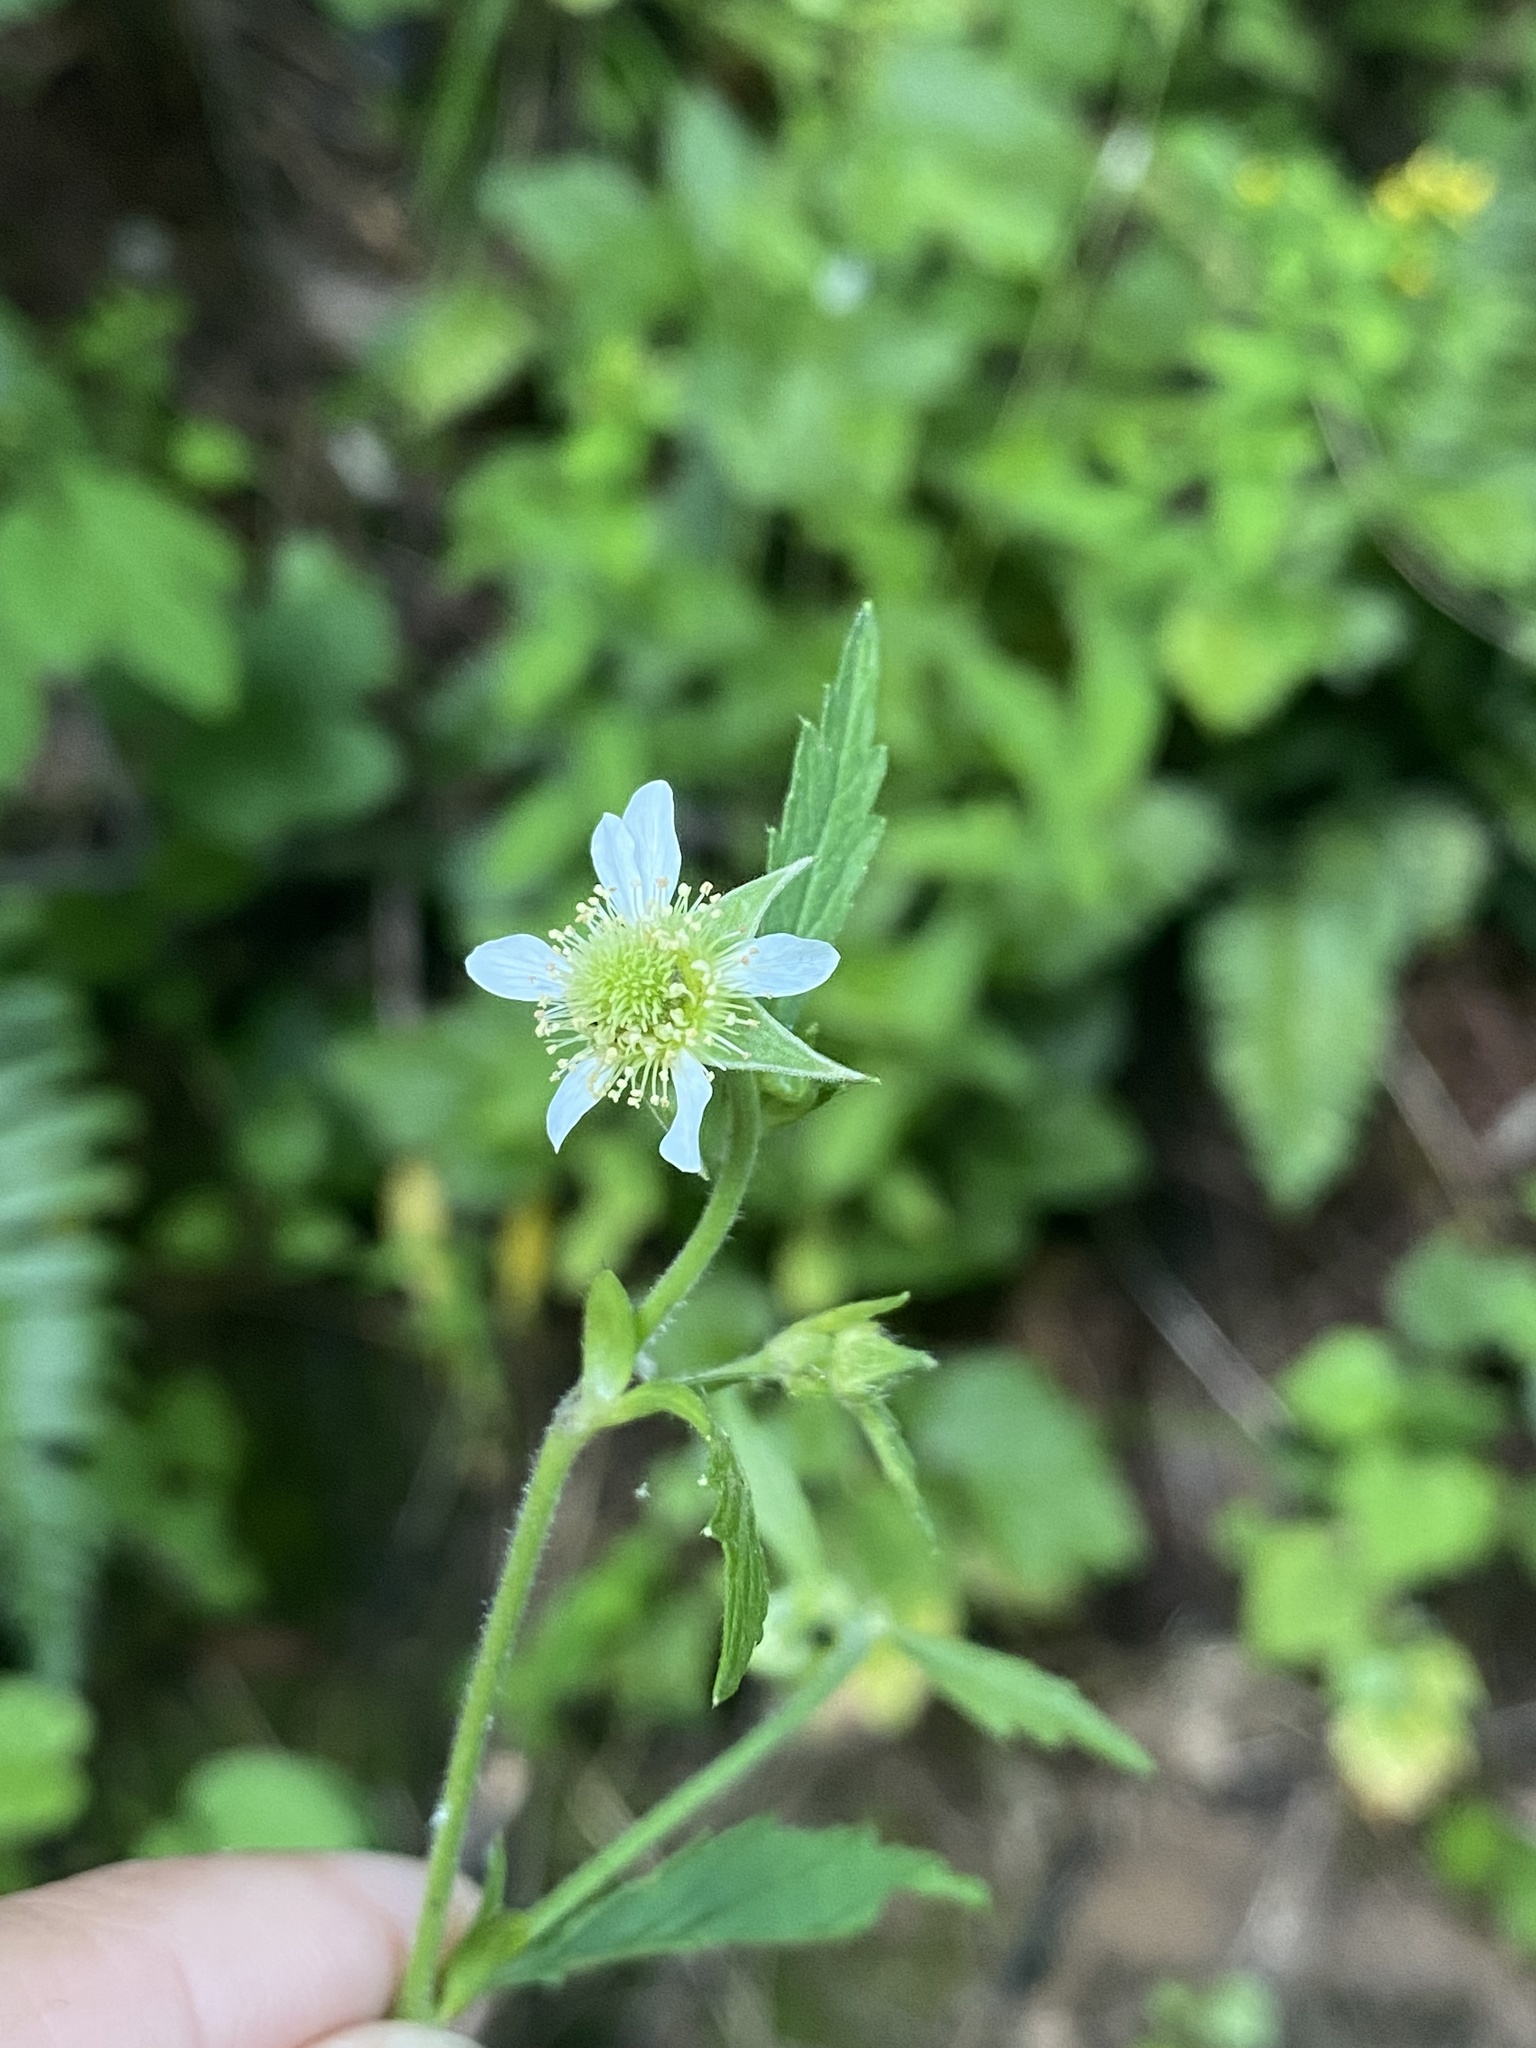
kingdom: Plantae
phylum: Tracheophyta
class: Magnoliopsida
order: Rosales
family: Rosaceae
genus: Geum
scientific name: Geum canadense
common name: White avens
